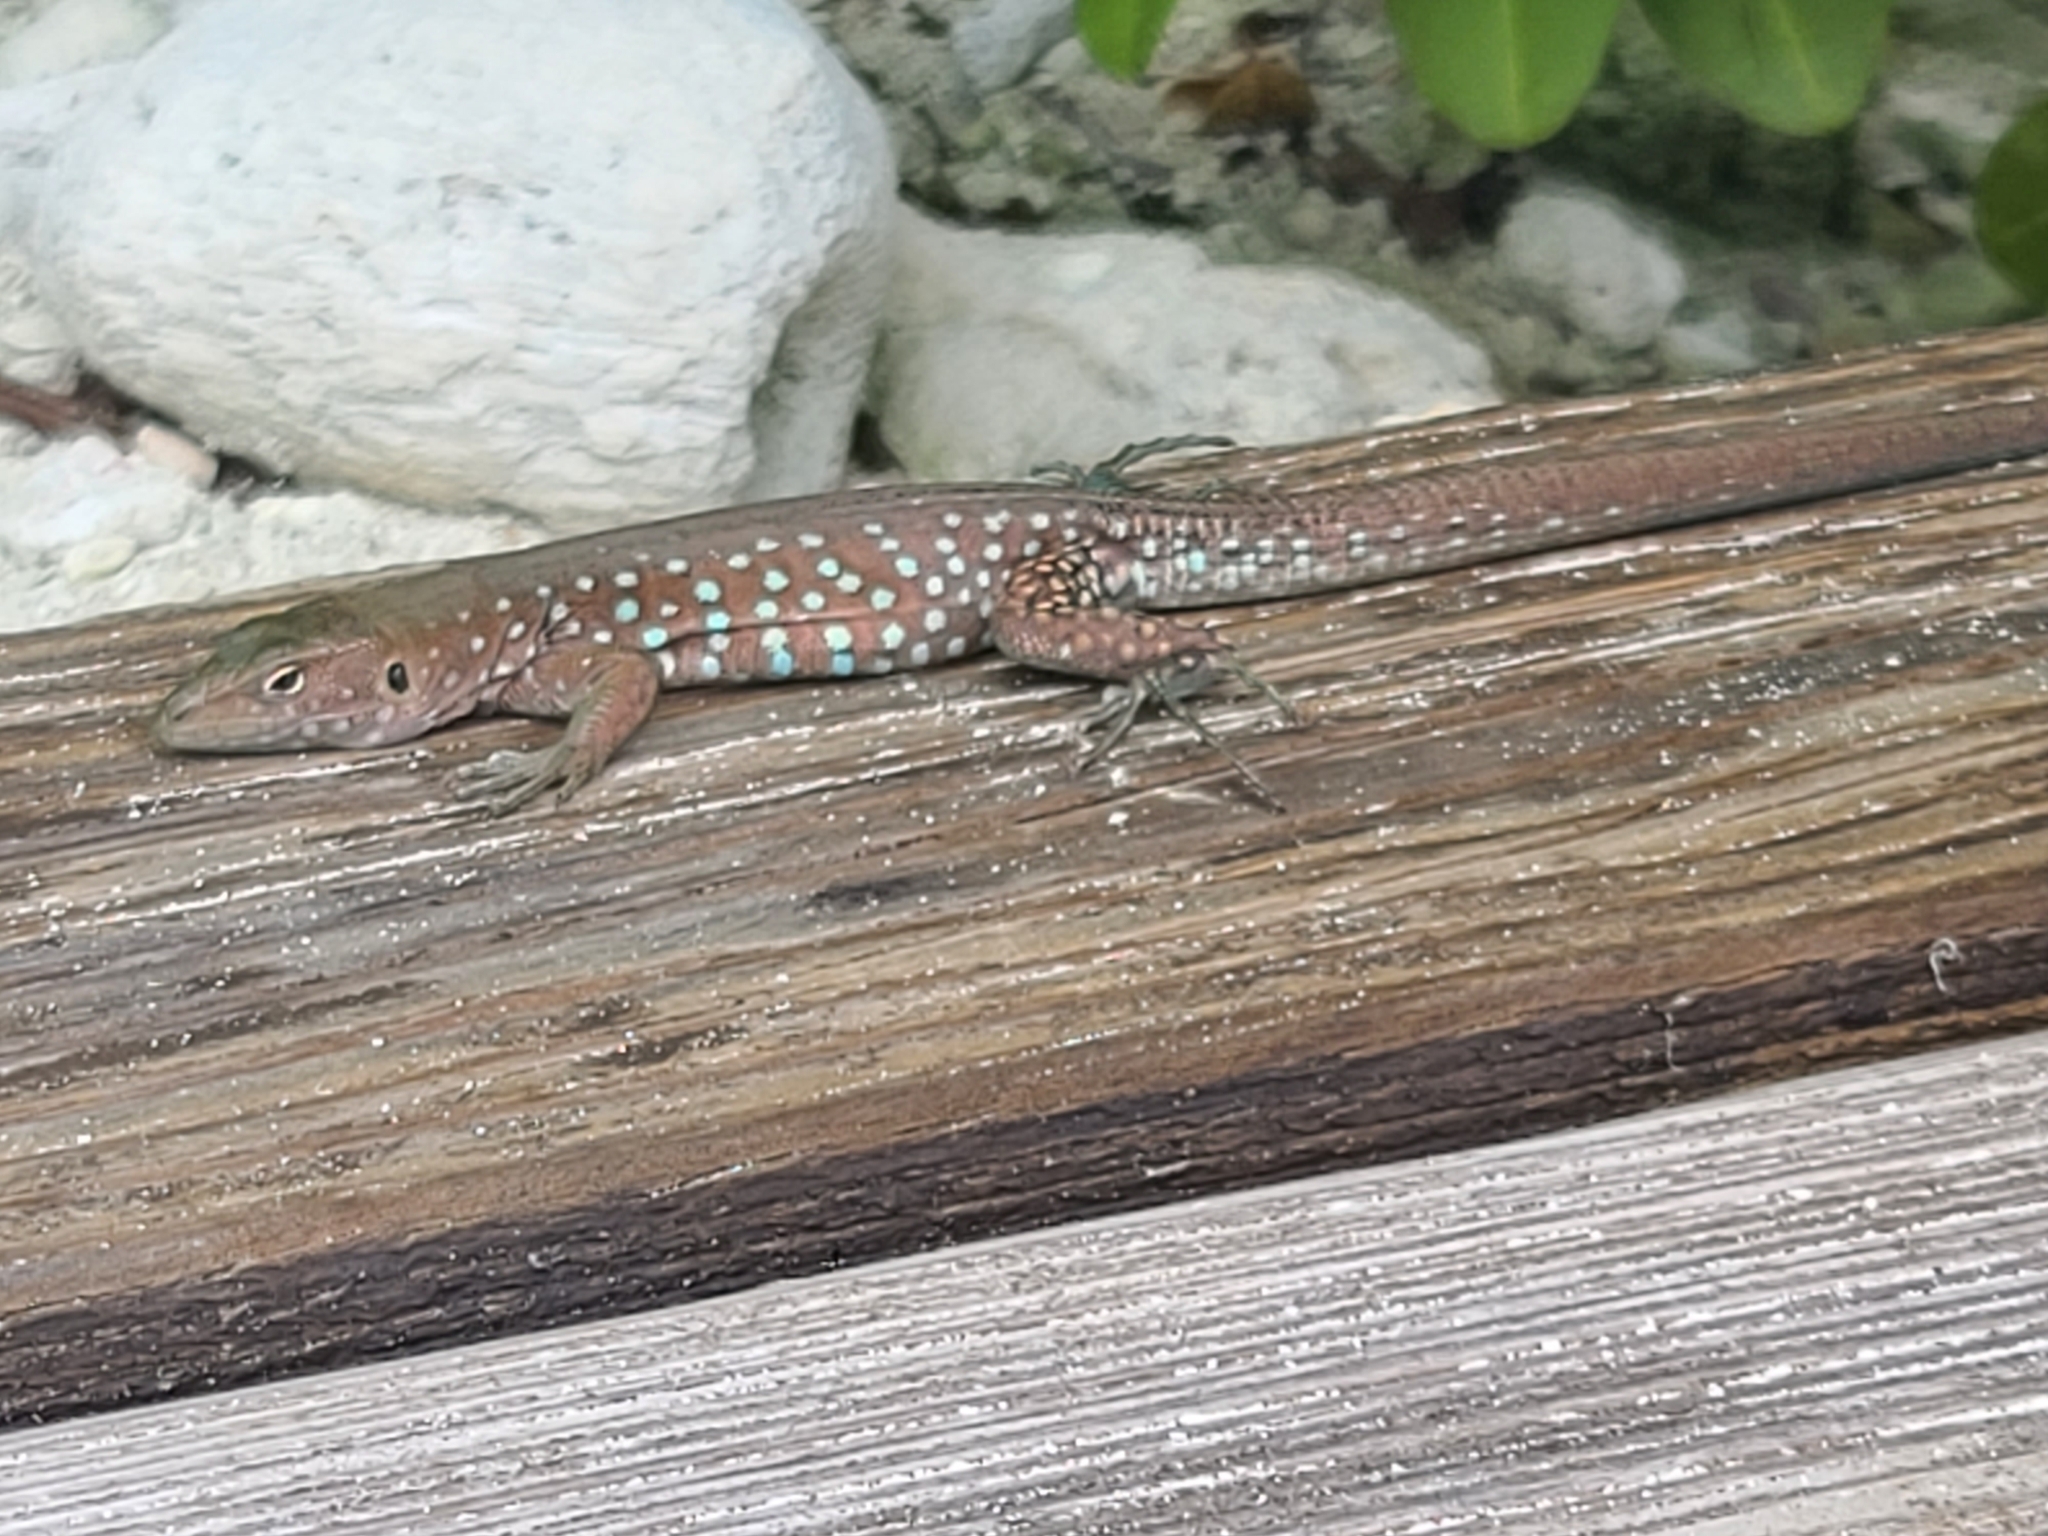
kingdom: Animalia
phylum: Chordata
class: Squamata
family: Teiidae
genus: Cnemidophorus
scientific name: Cnemidophorus arubensis
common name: Aruba whiptail
